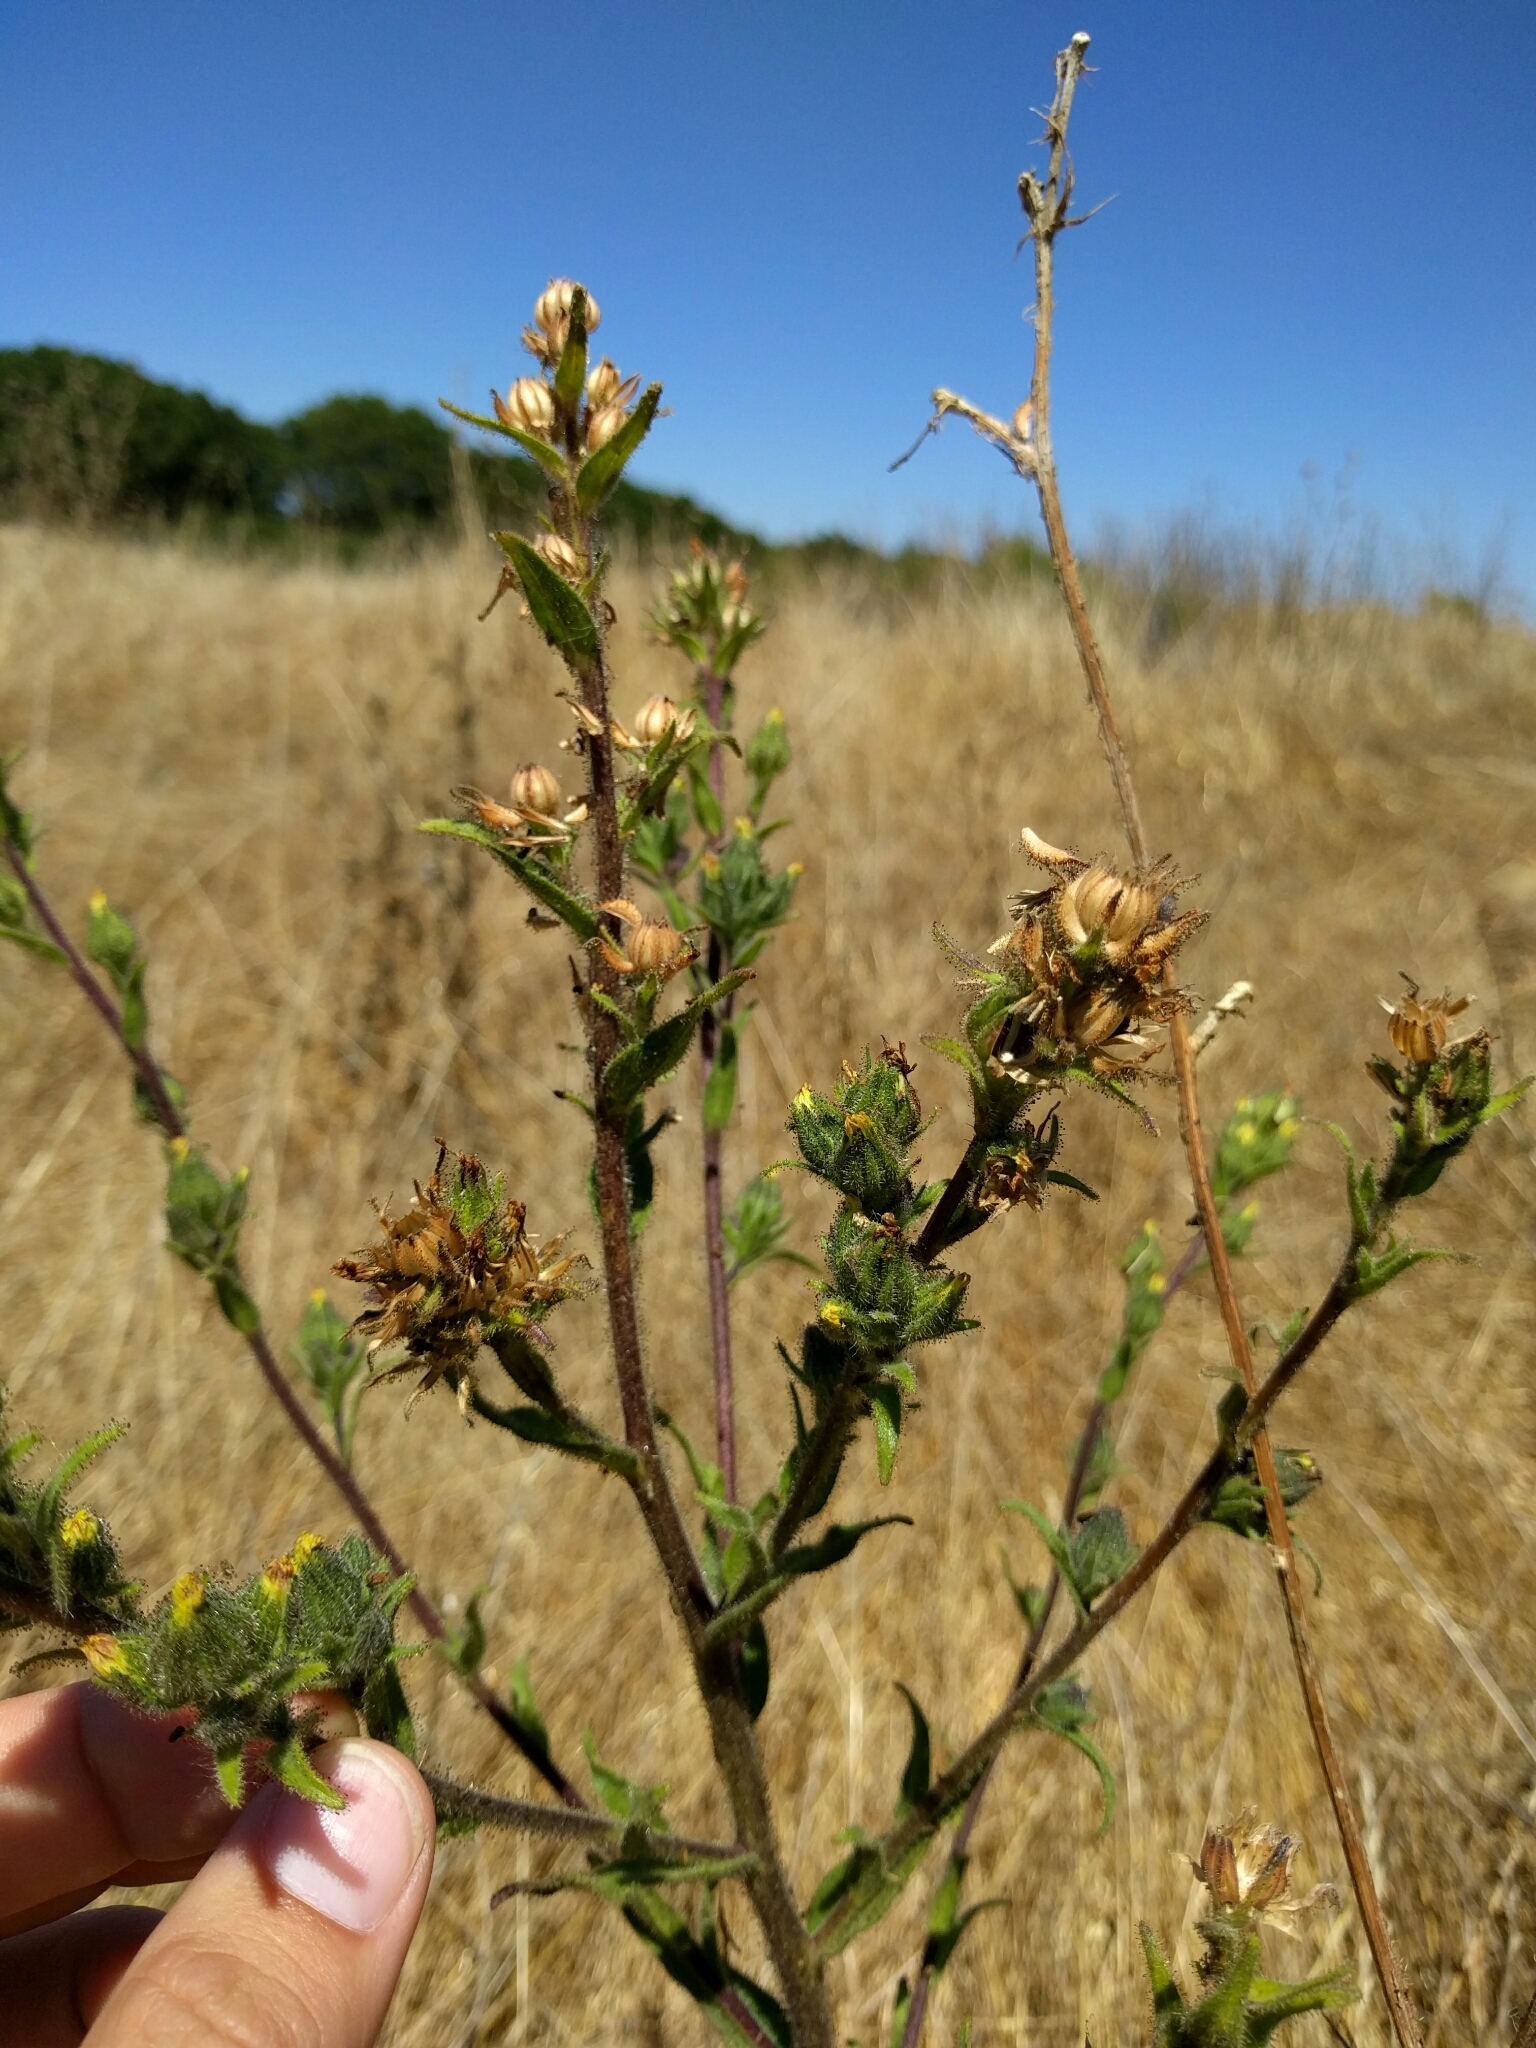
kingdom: Plantae
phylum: Tracheophyta
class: Magnoliopsida
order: Asterales
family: Asteraceae
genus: Madia
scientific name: Madia sativa
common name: Coast tarweed
